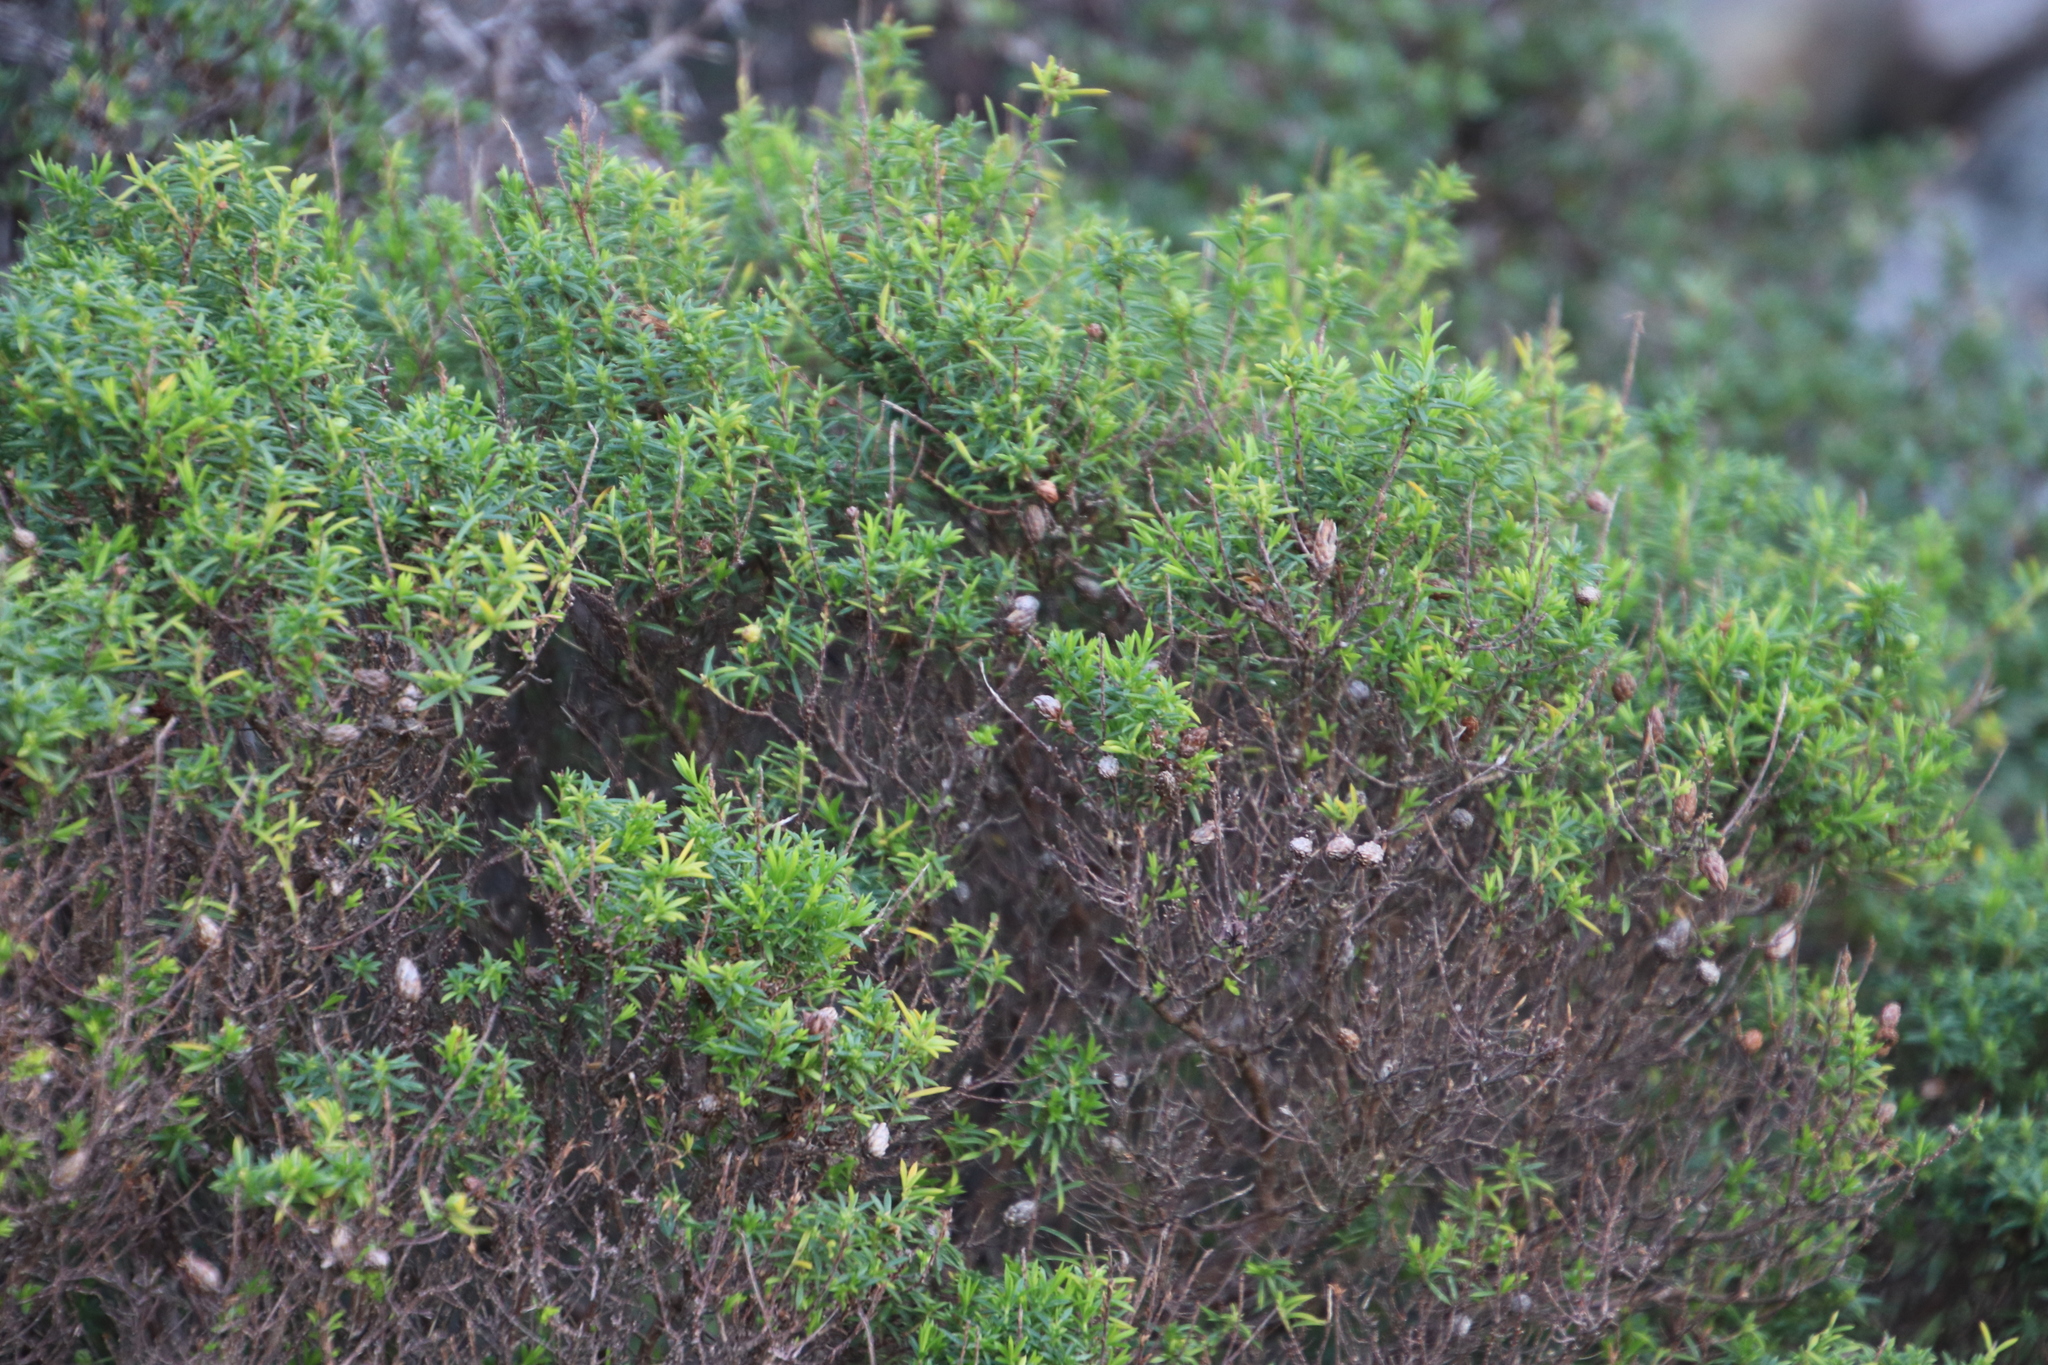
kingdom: Plantae
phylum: Tracheophyta
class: Magnoliopsida
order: Sapindales
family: Rutaceae
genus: Coleonema
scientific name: Coleonema album
